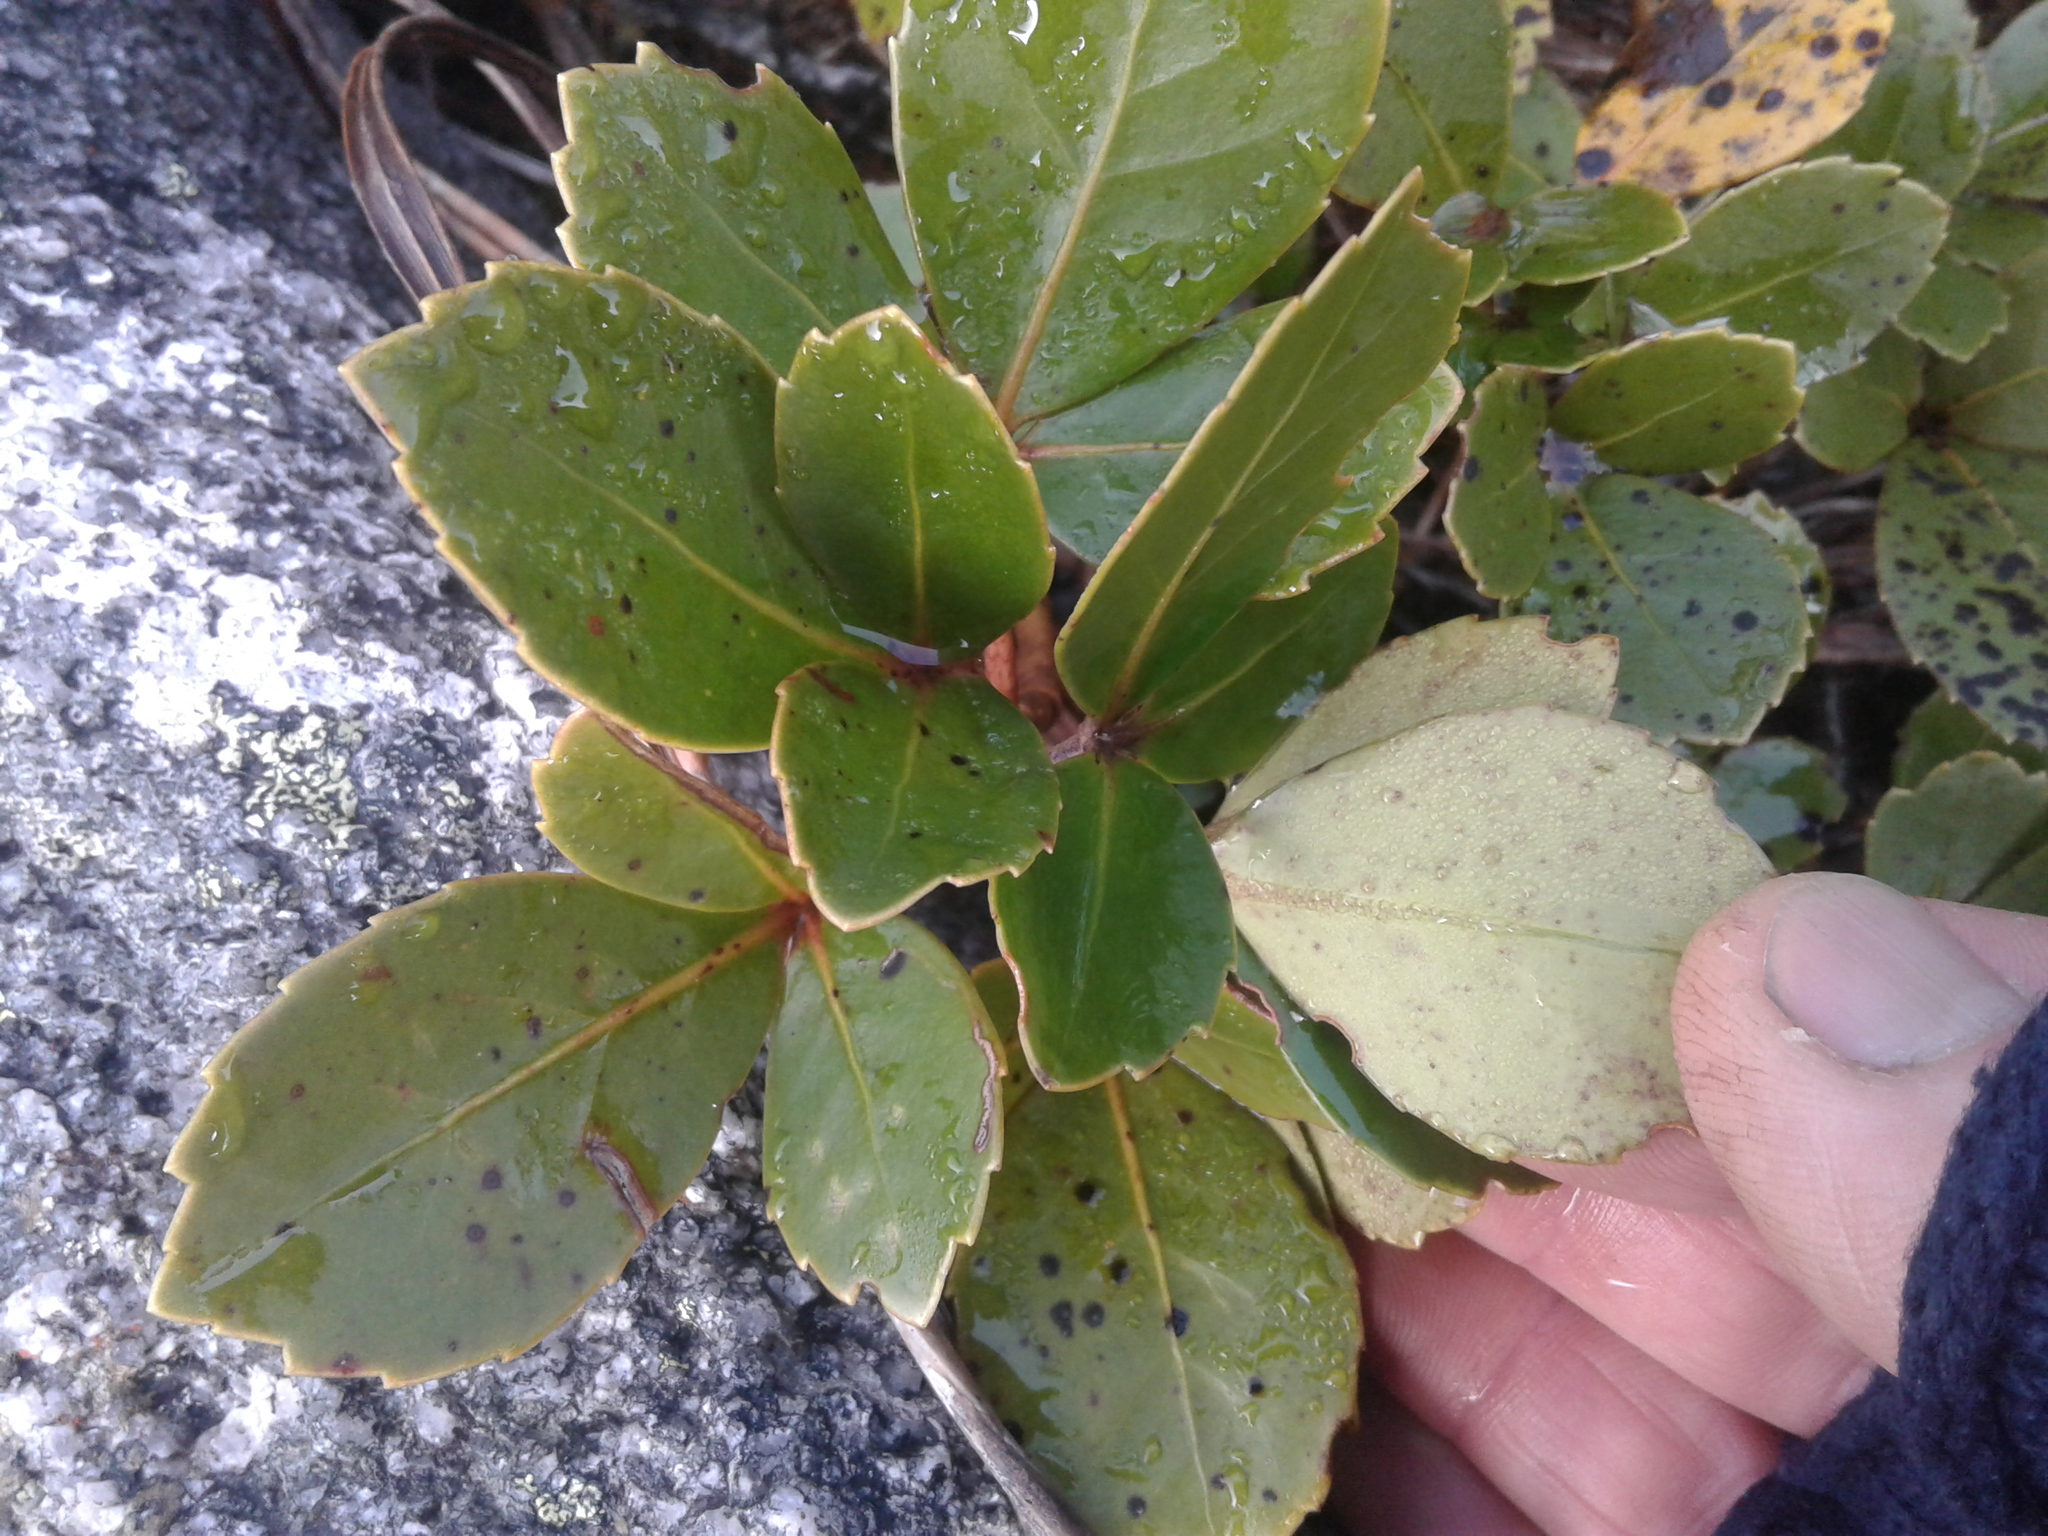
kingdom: Plantae
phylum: Tracheophyta
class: Magnoliopsida
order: Apiales
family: Araliaceae
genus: Neopanax
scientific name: Neopanax colensoi
